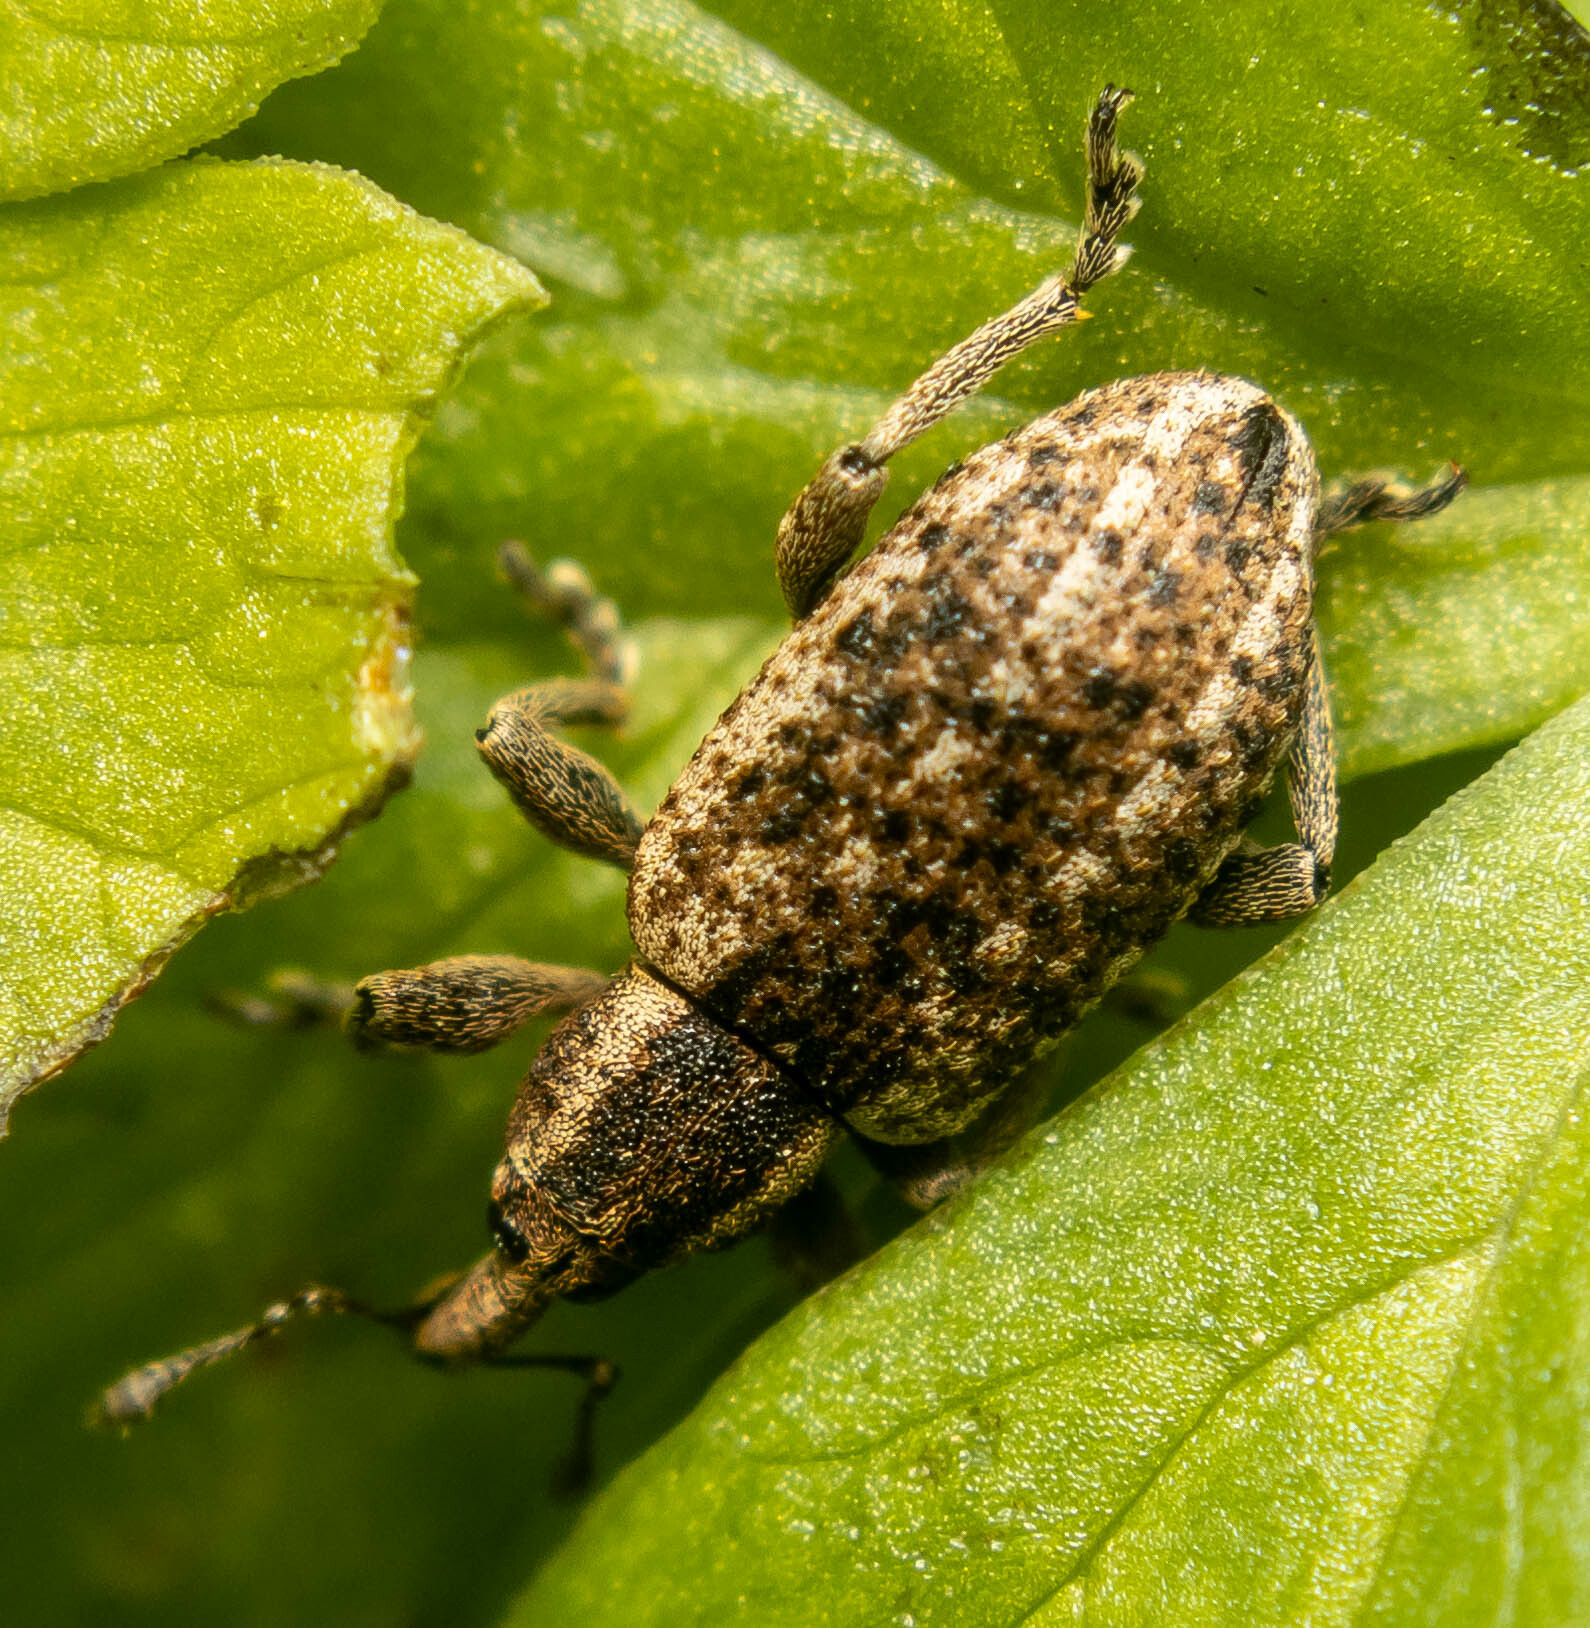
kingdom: Animalia
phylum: Arthropoda
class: Insecta
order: Coleoptera
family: Curculionidae
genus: Hypera
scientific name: Hypera conmaculata
